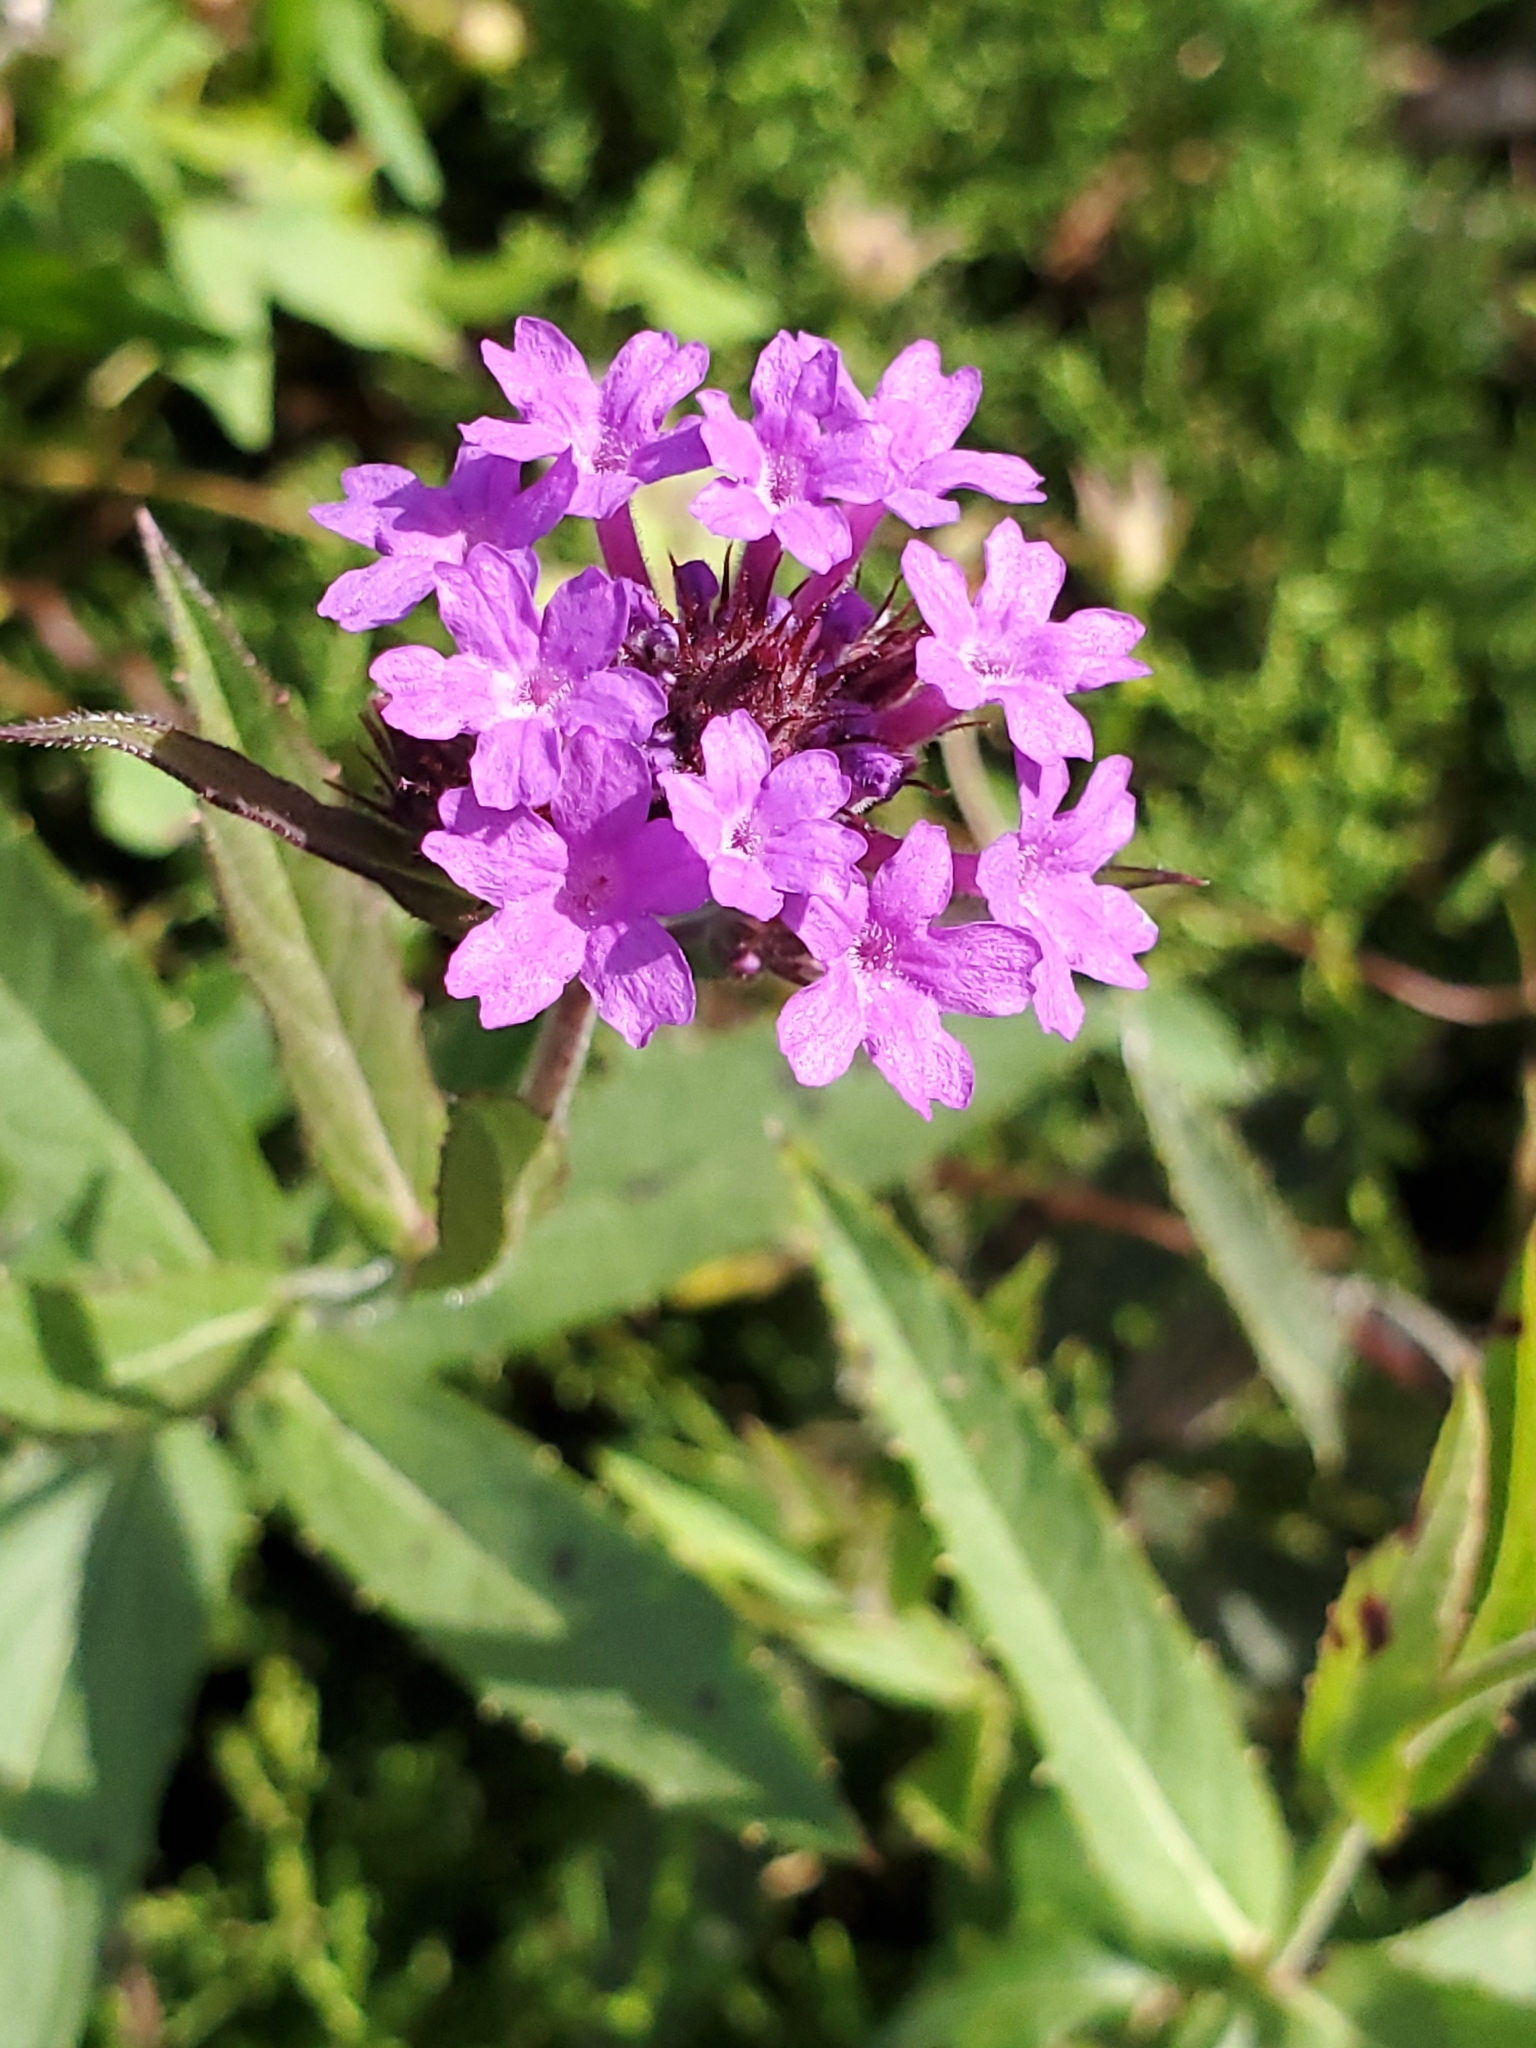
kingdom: Plantae
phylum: Tracheophyta
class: Magnoliopsida
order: Lamiales
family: Verbenaceae
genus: Verbena
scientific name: Verbena rigida
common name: Slender vervain
